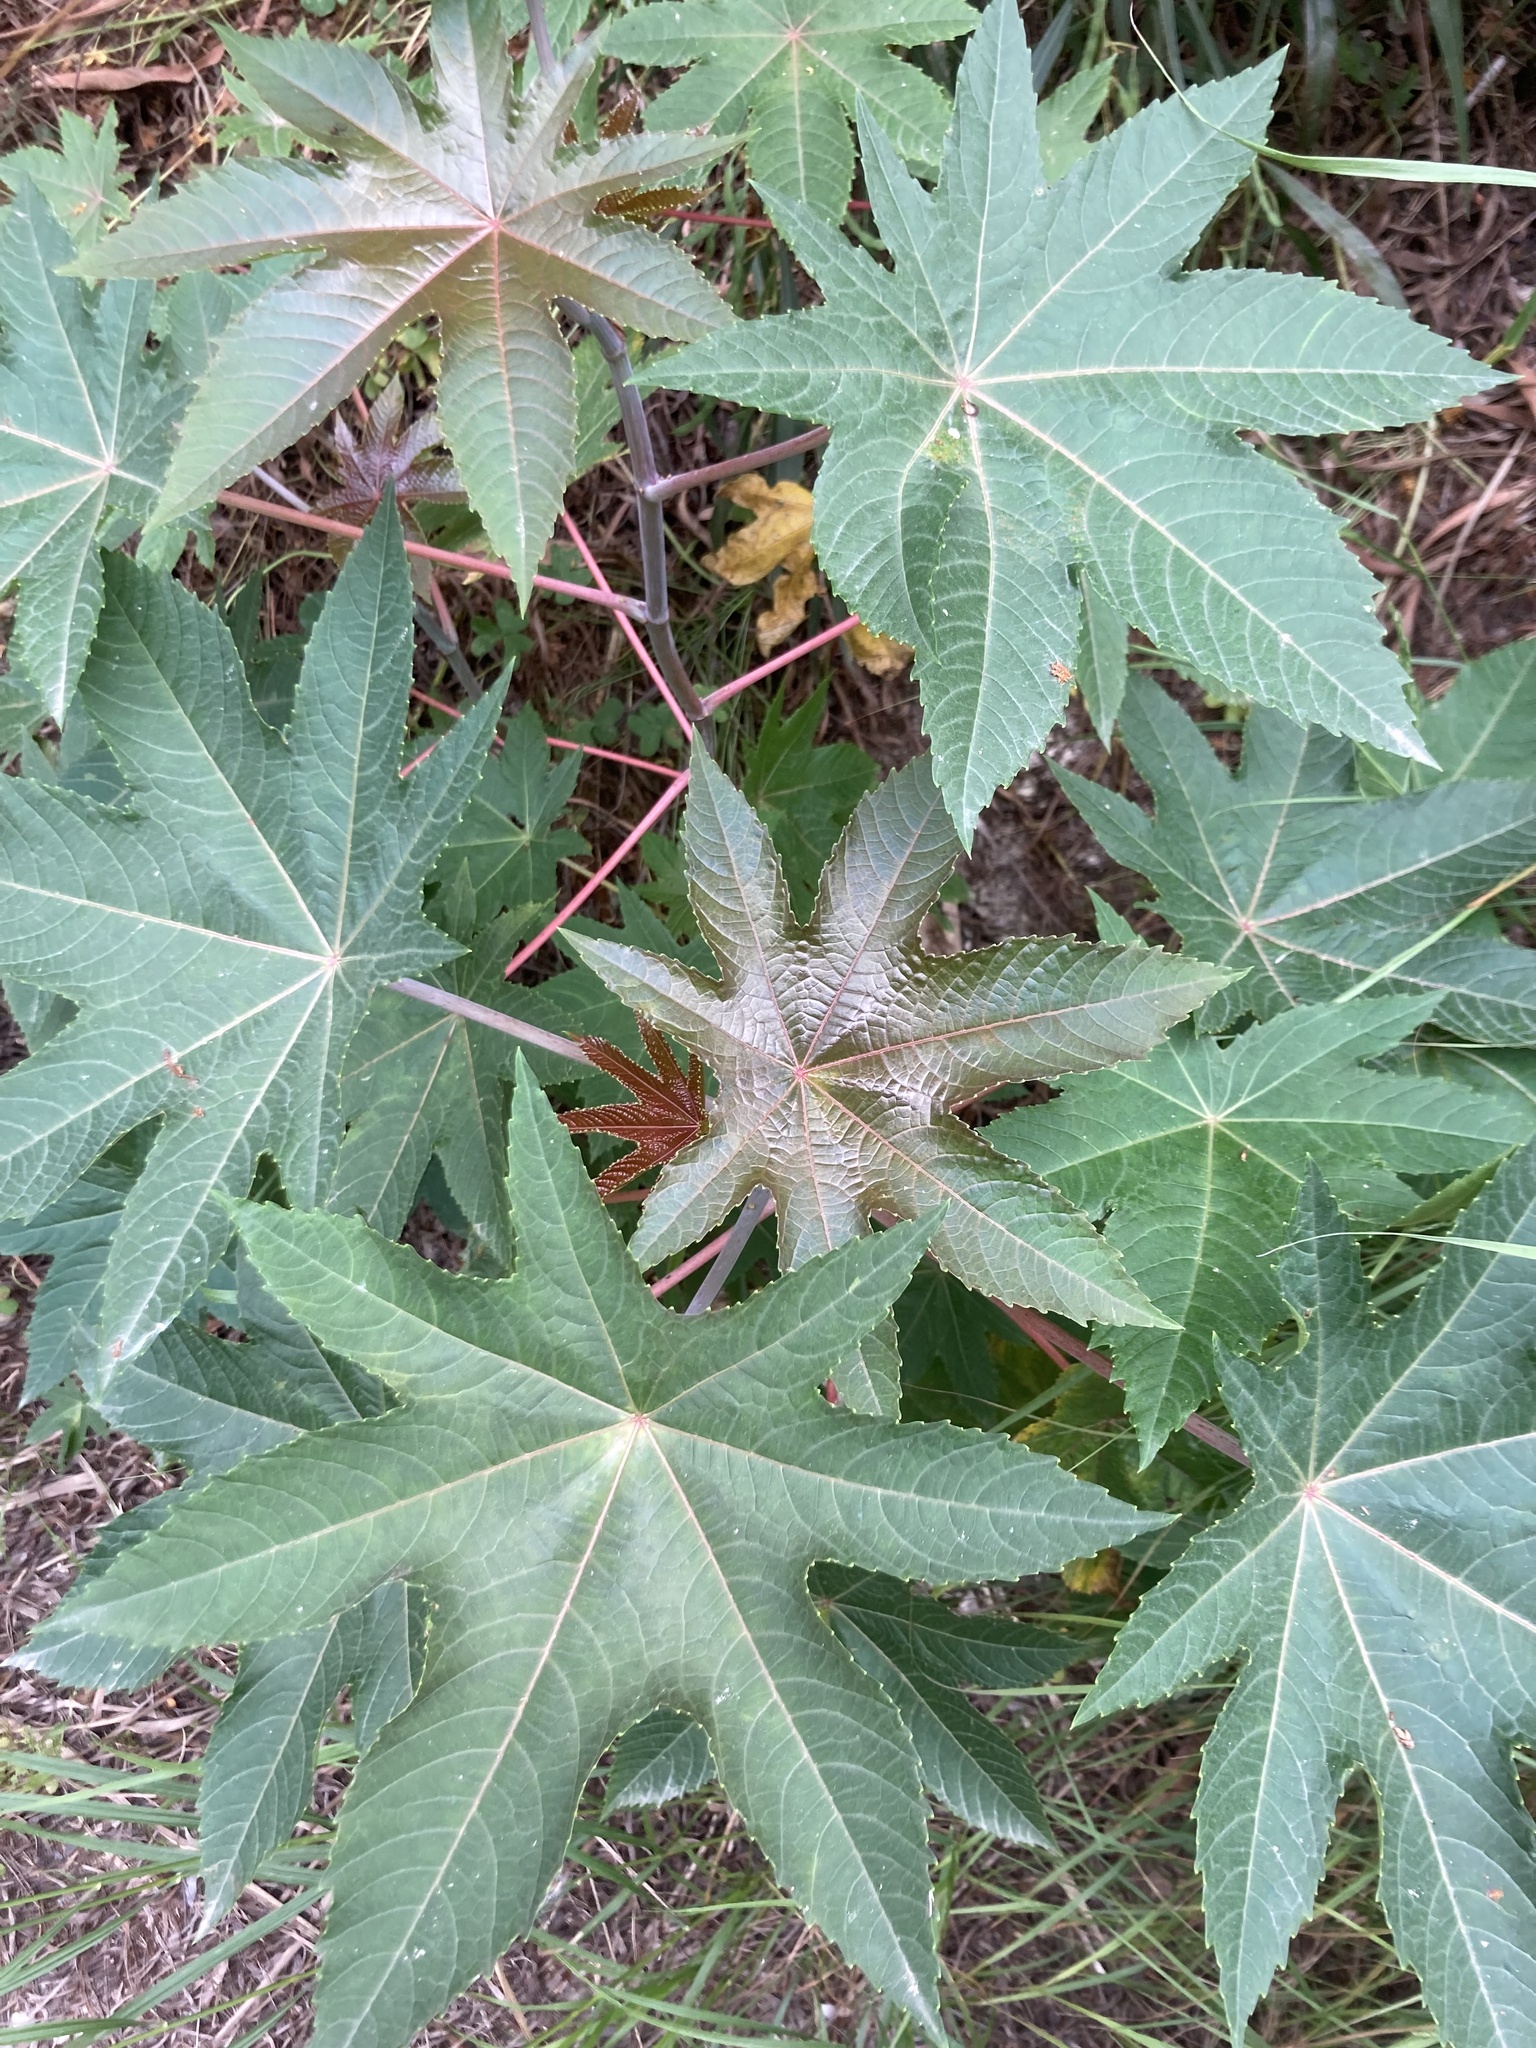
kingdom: Plantae
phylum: Tracheophyta
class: Magnoliopsida
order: Malpighiales
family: Euphorbiaceae
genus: Ricinus
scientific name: Ricinus communis
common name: Castor-oil-plant
